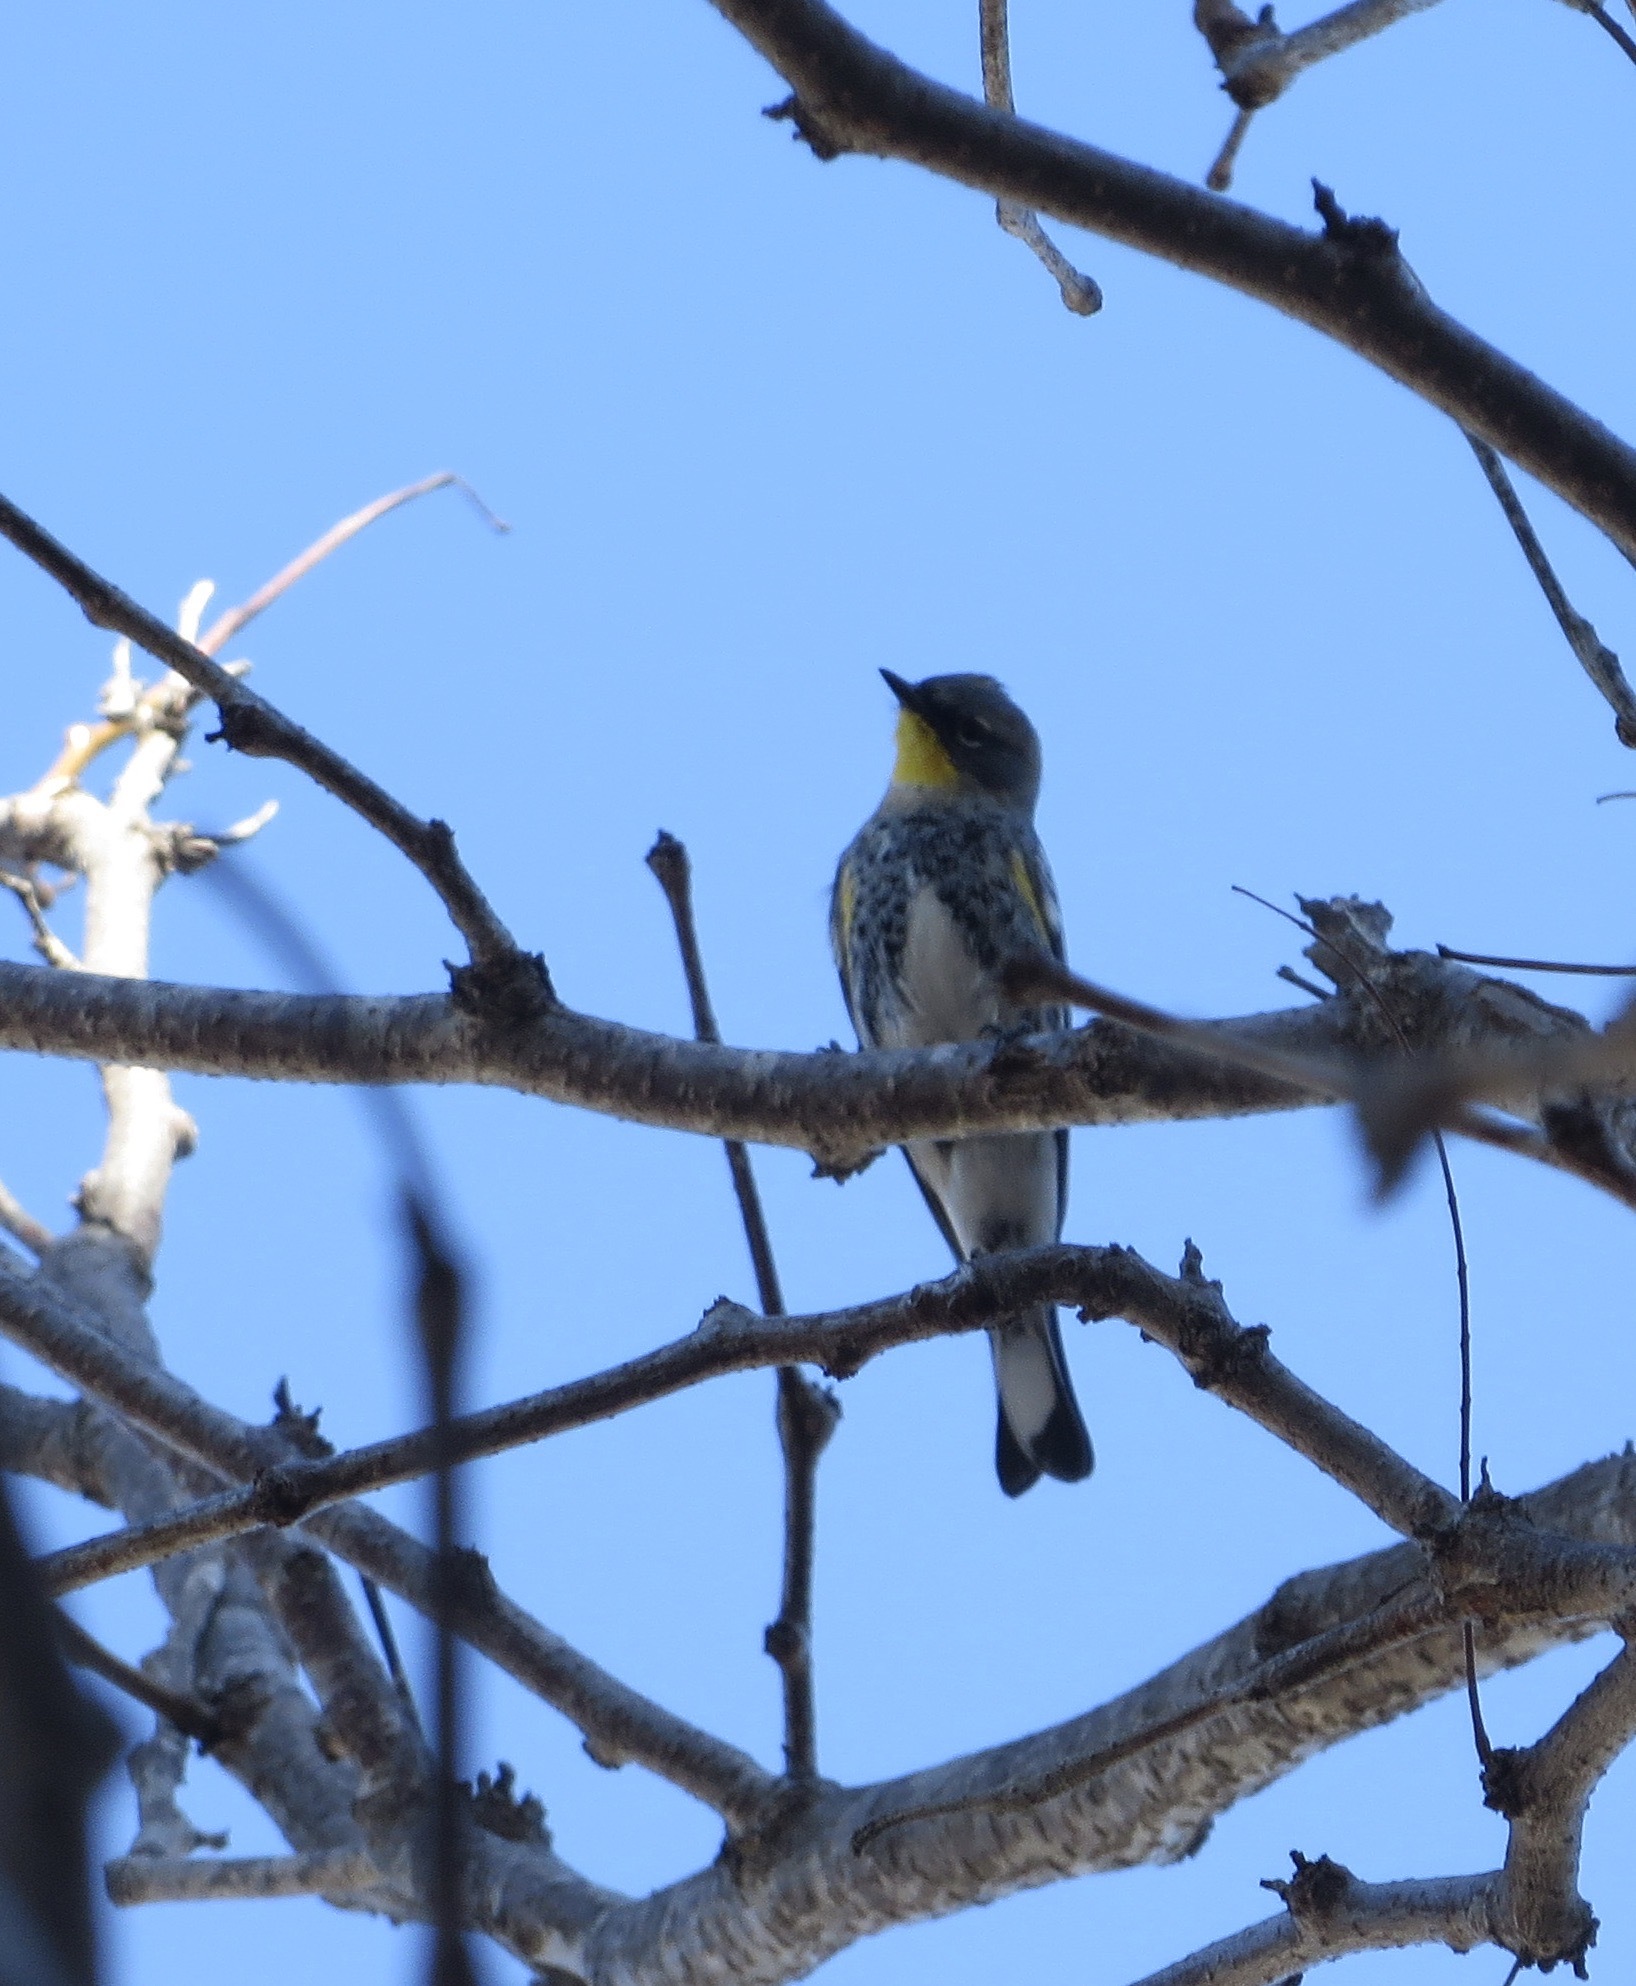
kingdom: Animalia
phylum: Chordata
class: Aves
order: Passeriformes
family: Parulidae
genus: Setophaga
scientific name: Setophaga coronata
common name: Myrtle warbler
